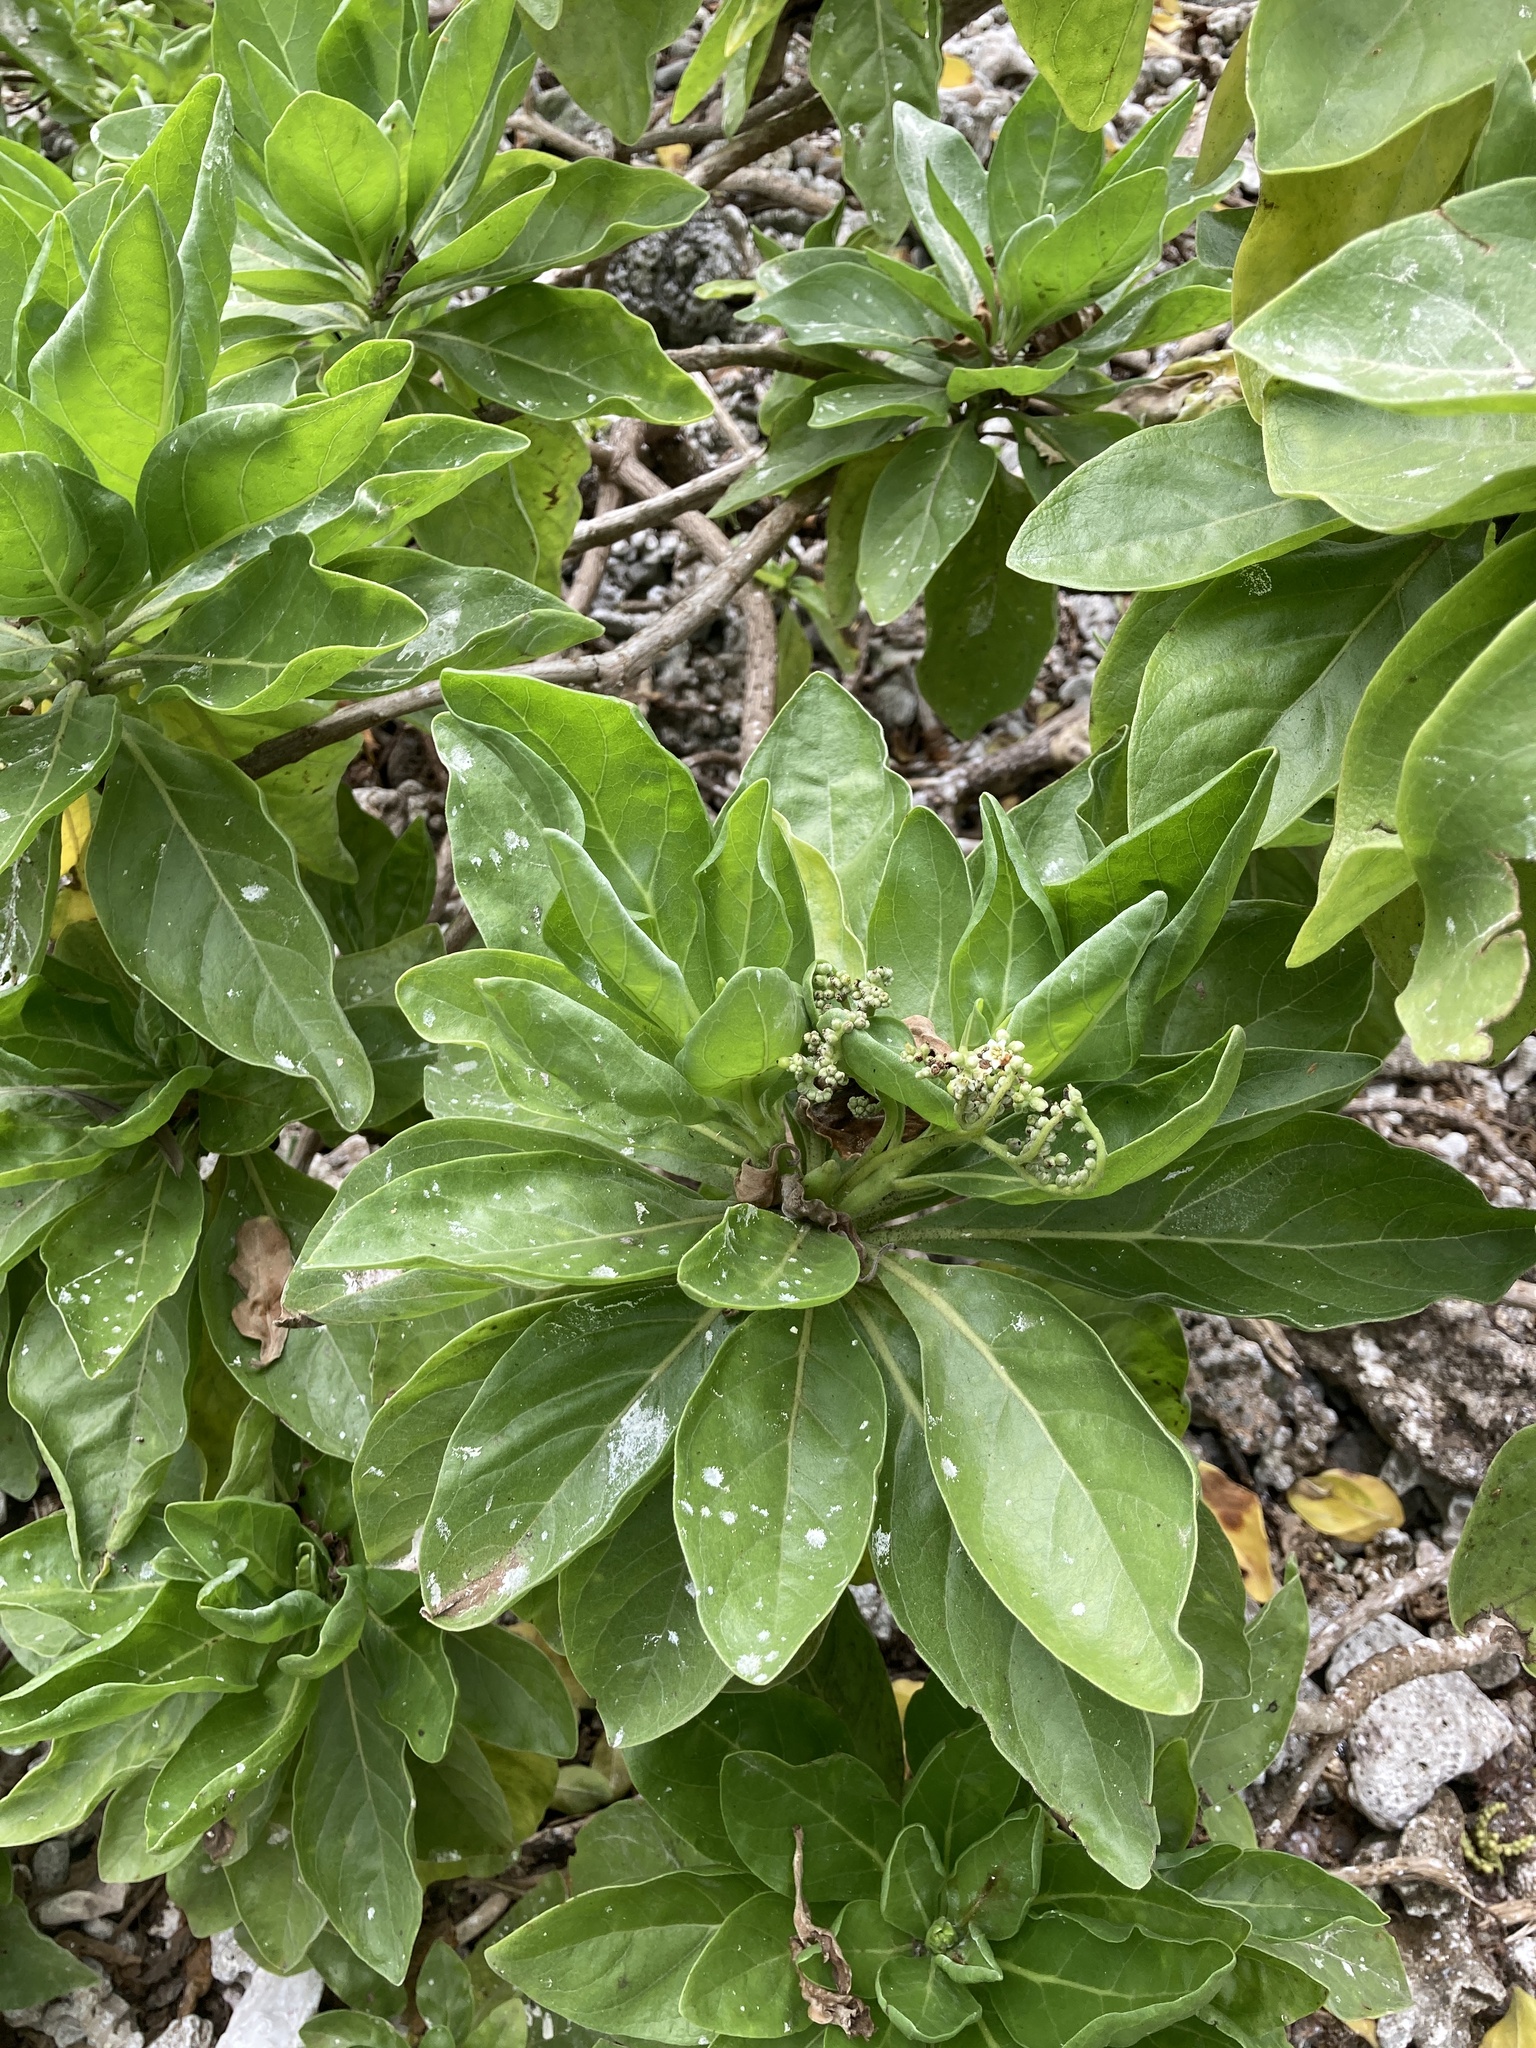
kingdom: Plantae
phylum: Tracheophyta
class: Magnoliopsida
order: Boraginales
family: Heliotropiaceae
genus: Heliotropium
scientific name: Heliotropium velutinum
